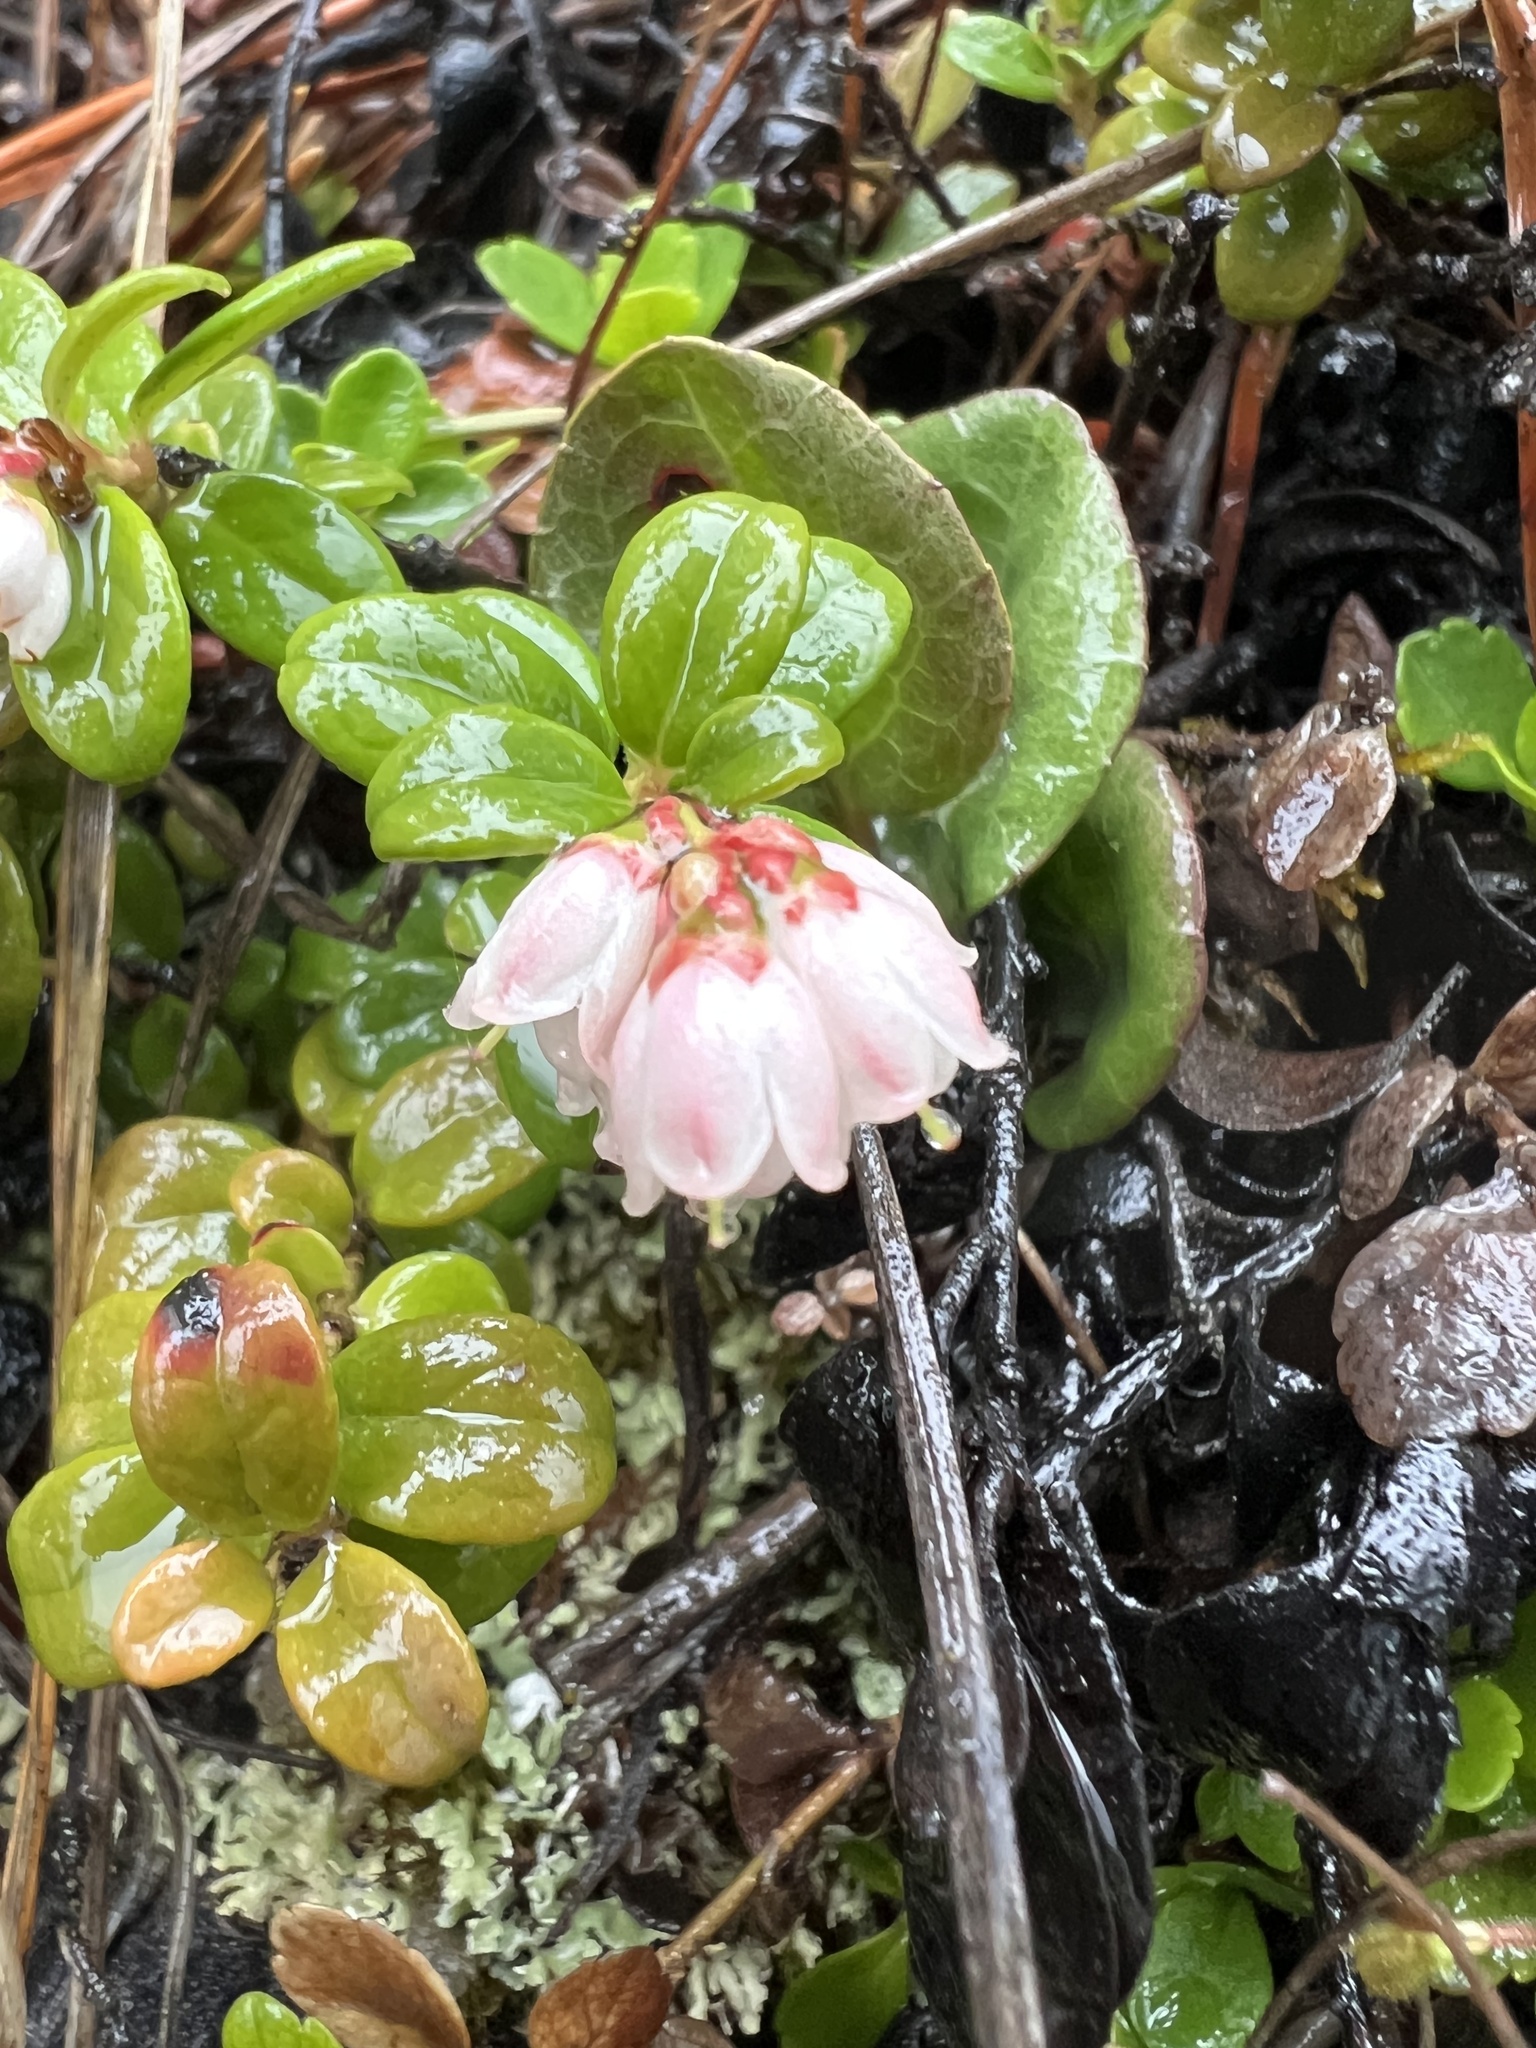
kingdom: Plantae
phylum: Tracheophyta
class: Magnoliopsida
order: Ericales
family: Ericaceae
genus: Vaccinium
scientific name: Vaccinium vitis-idaea
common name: Cowberry
